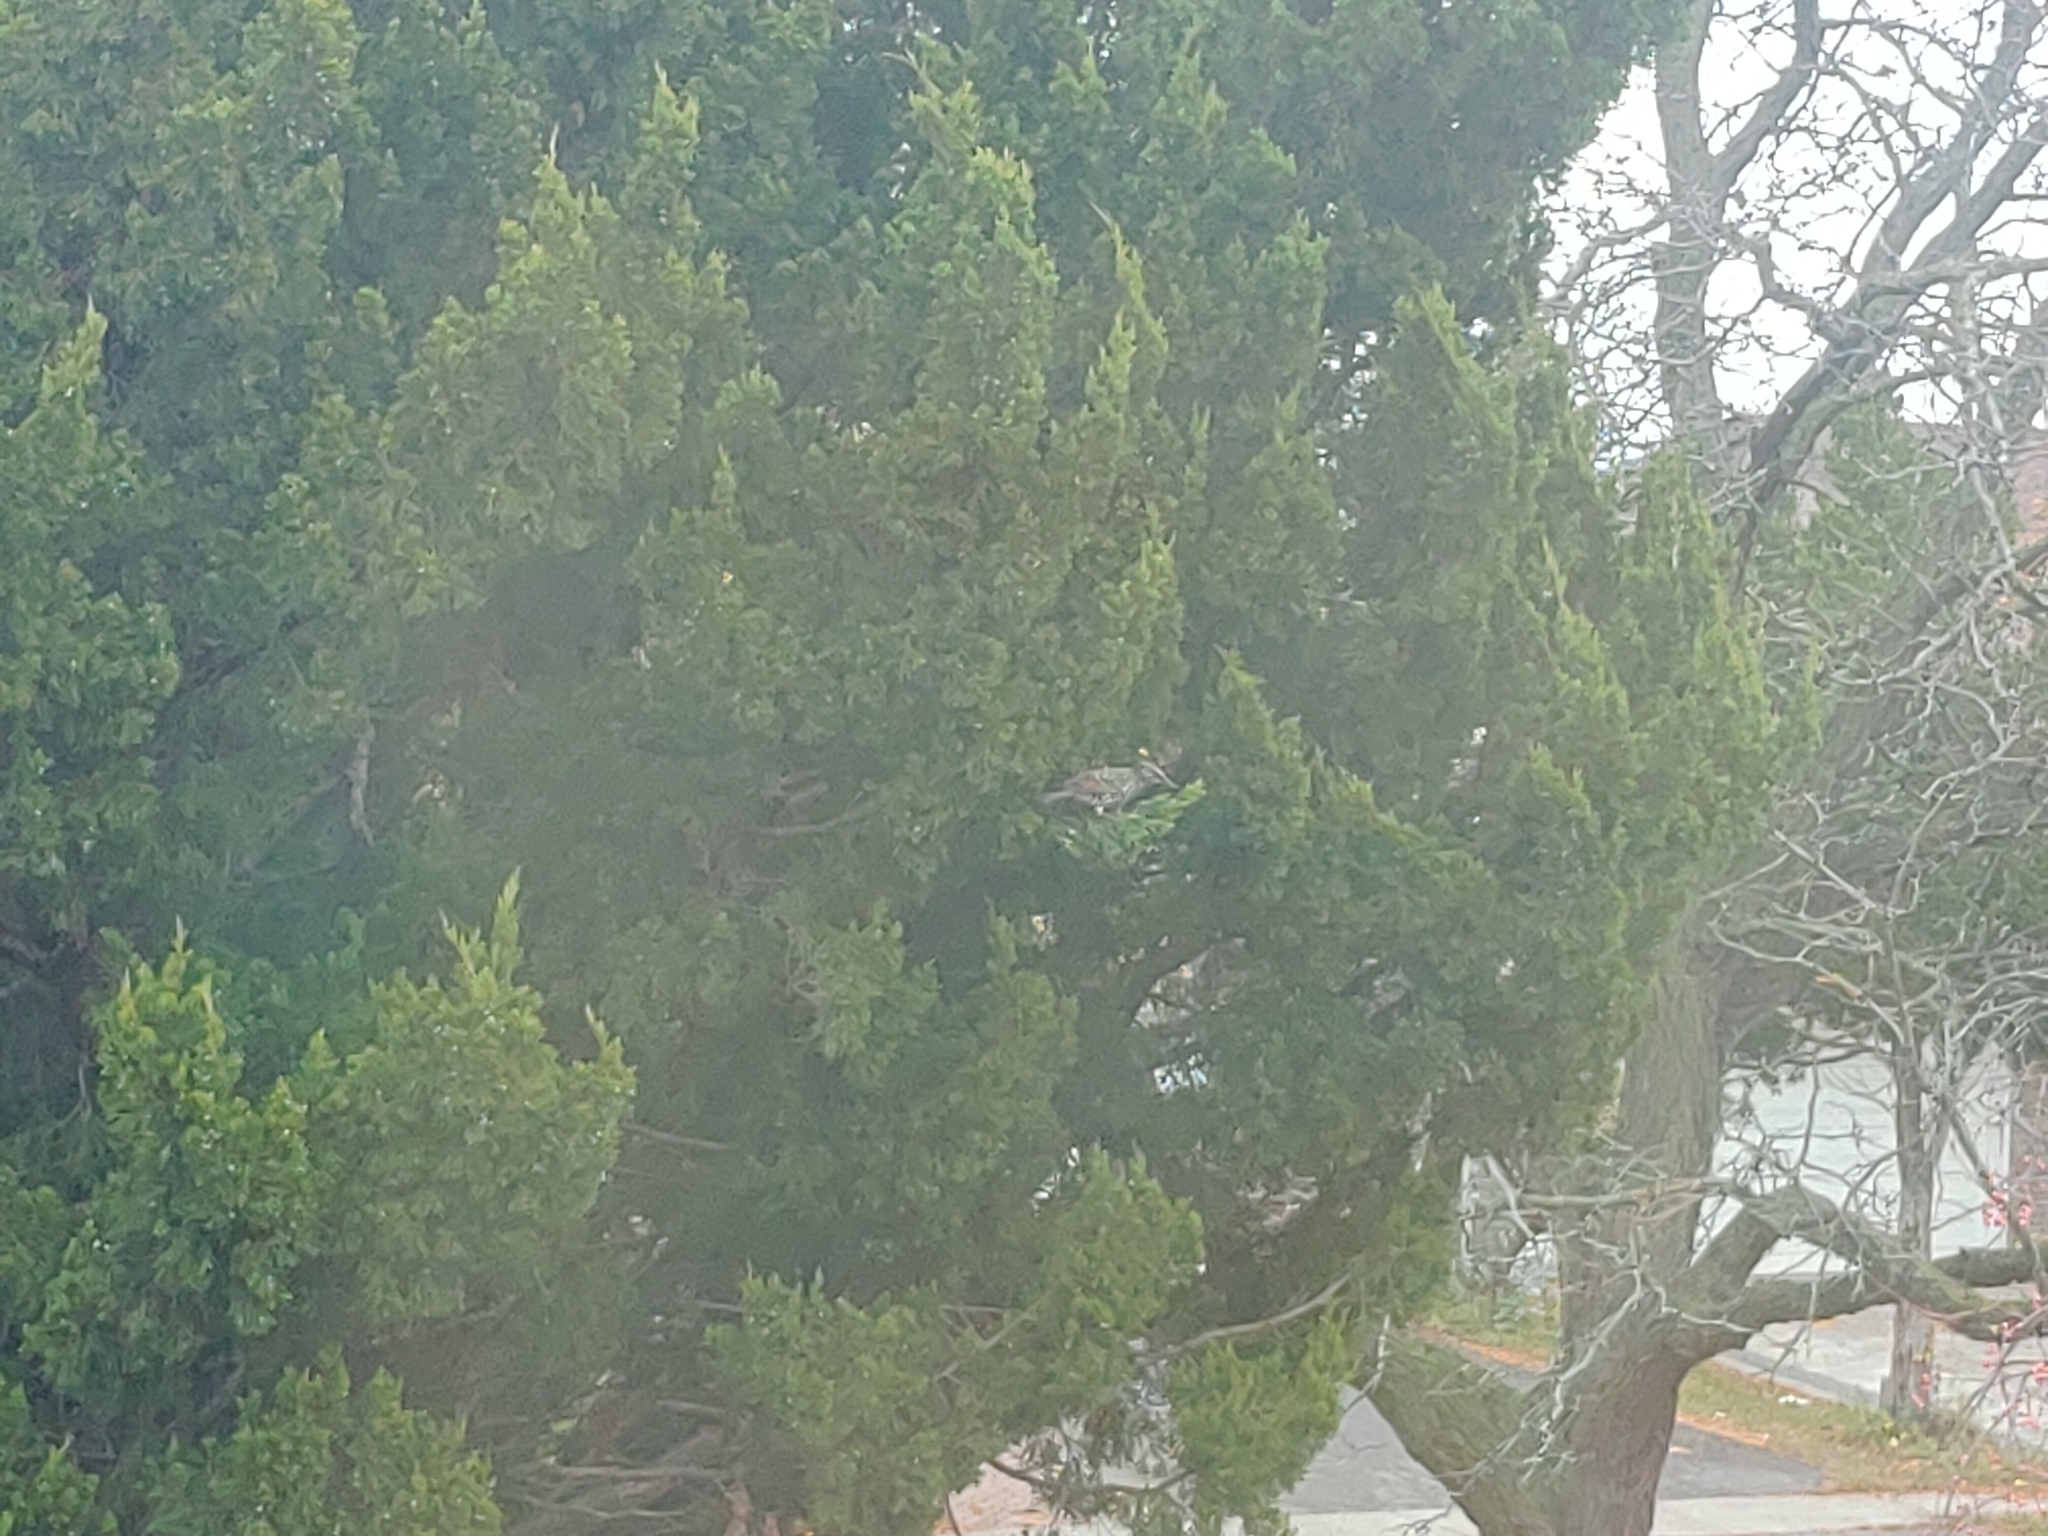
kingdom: Animalia
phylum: Chordata
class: Aves
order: Passeriformes
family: Sturnidae
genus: Sturnus
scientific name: Sturnus vulgaris
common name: Common starling
